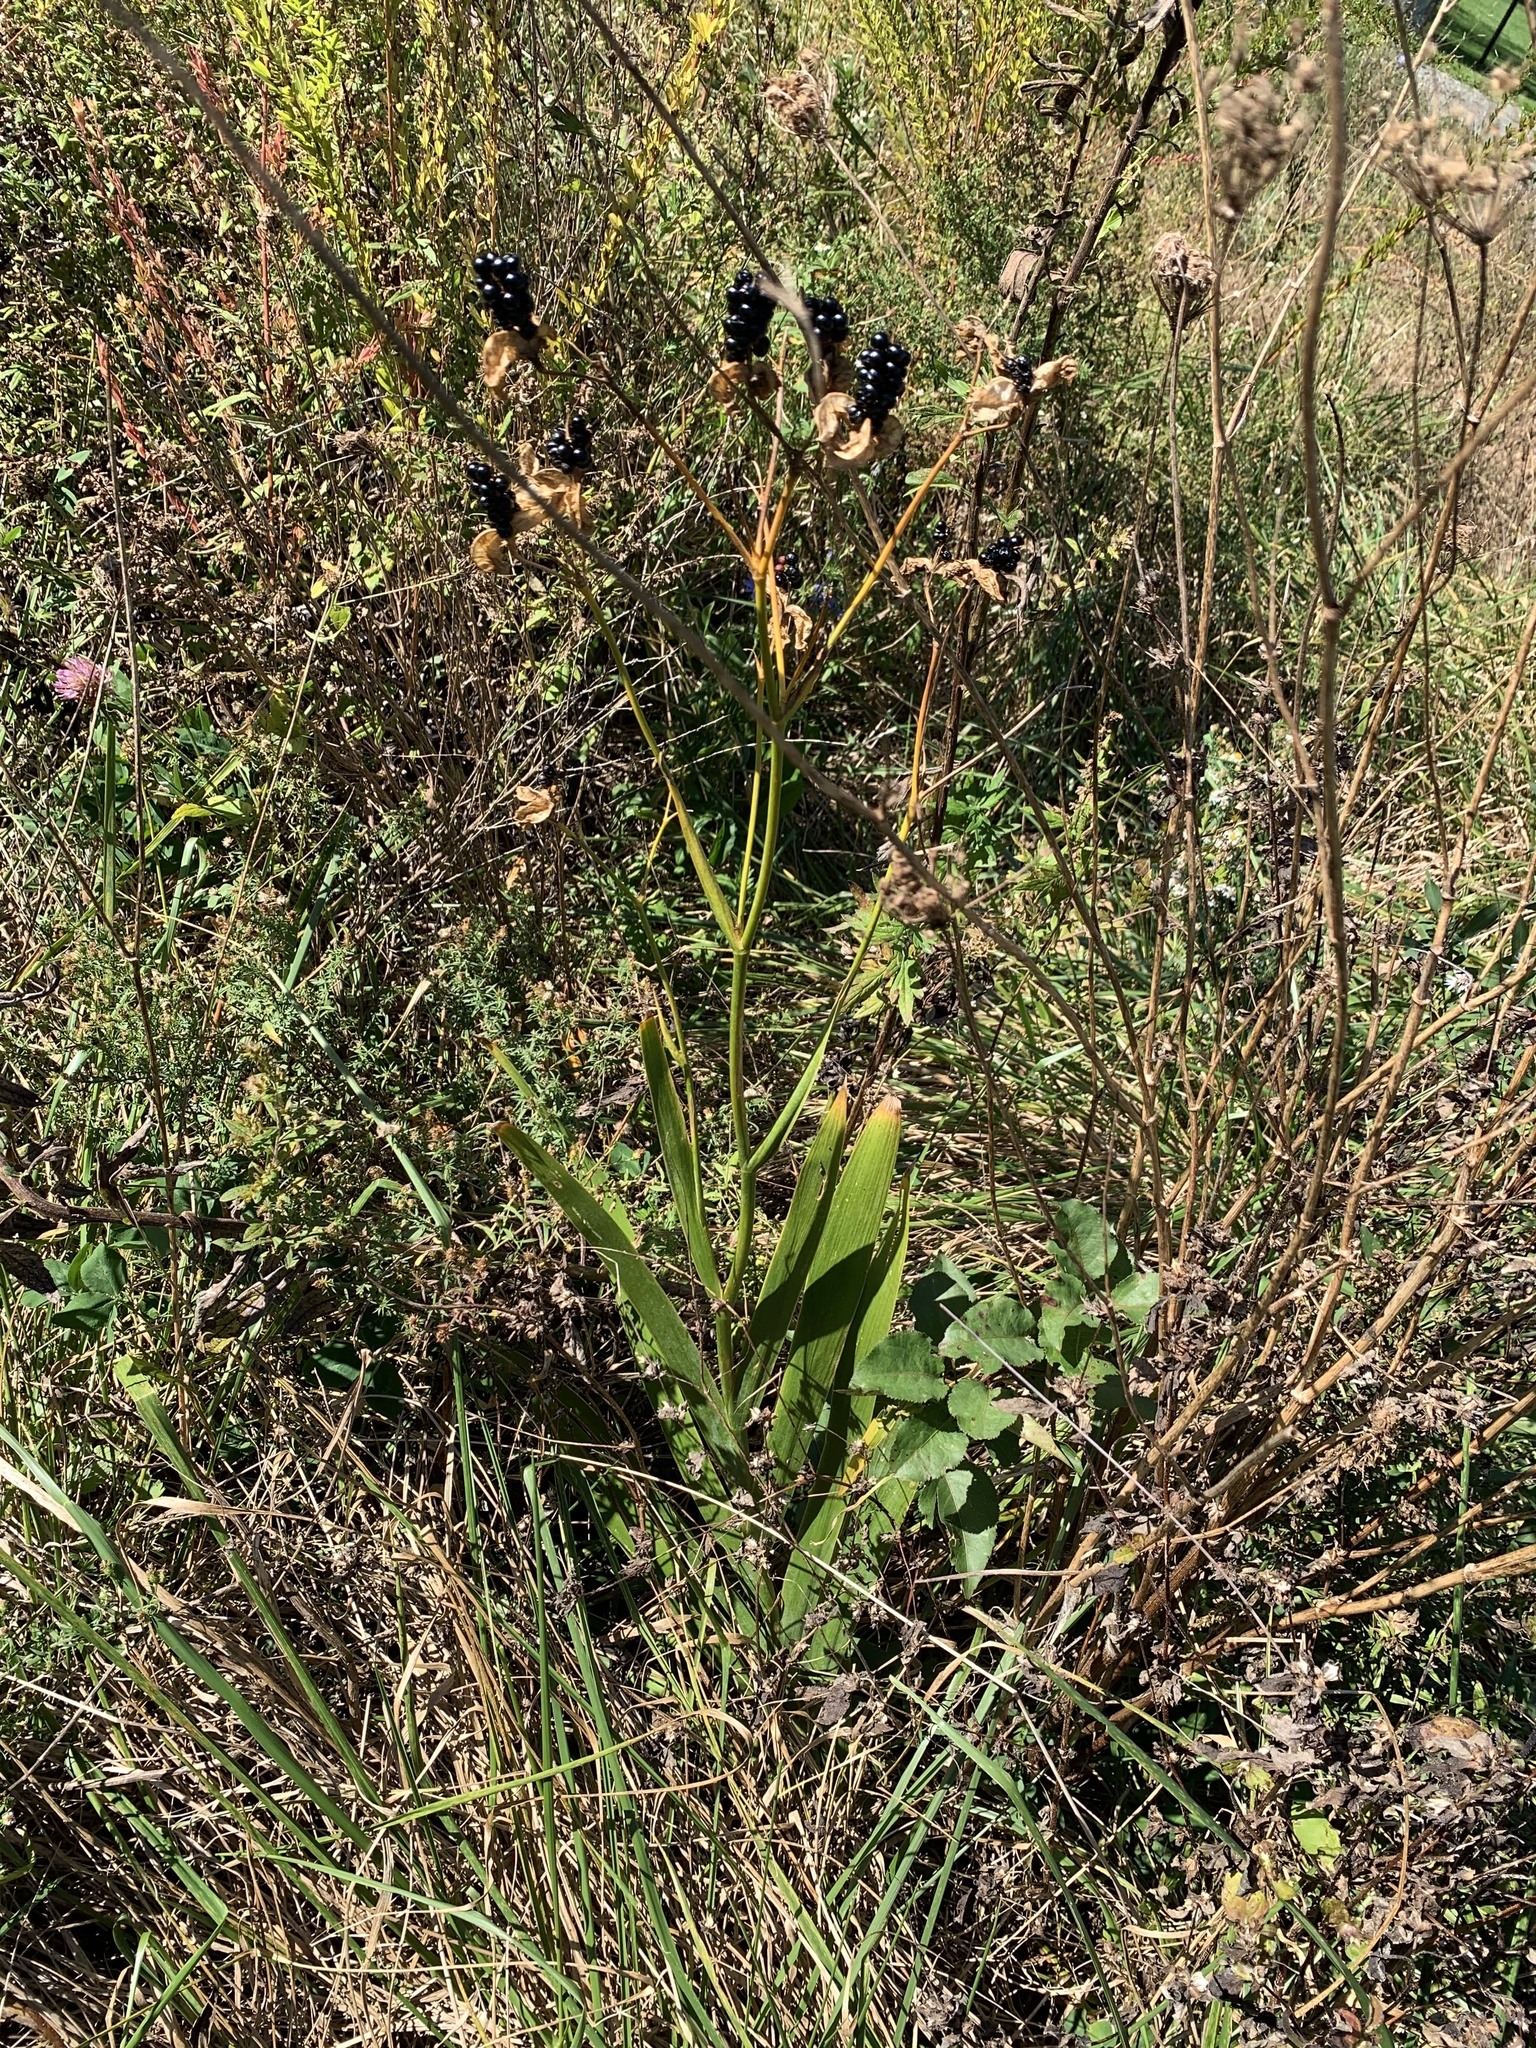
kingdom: Plantae
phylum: Tracheophyta
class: Liliopsida
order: Asparagales
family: Iridaceae
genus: Iris
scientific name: Iris domestica
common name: Belamcanda
